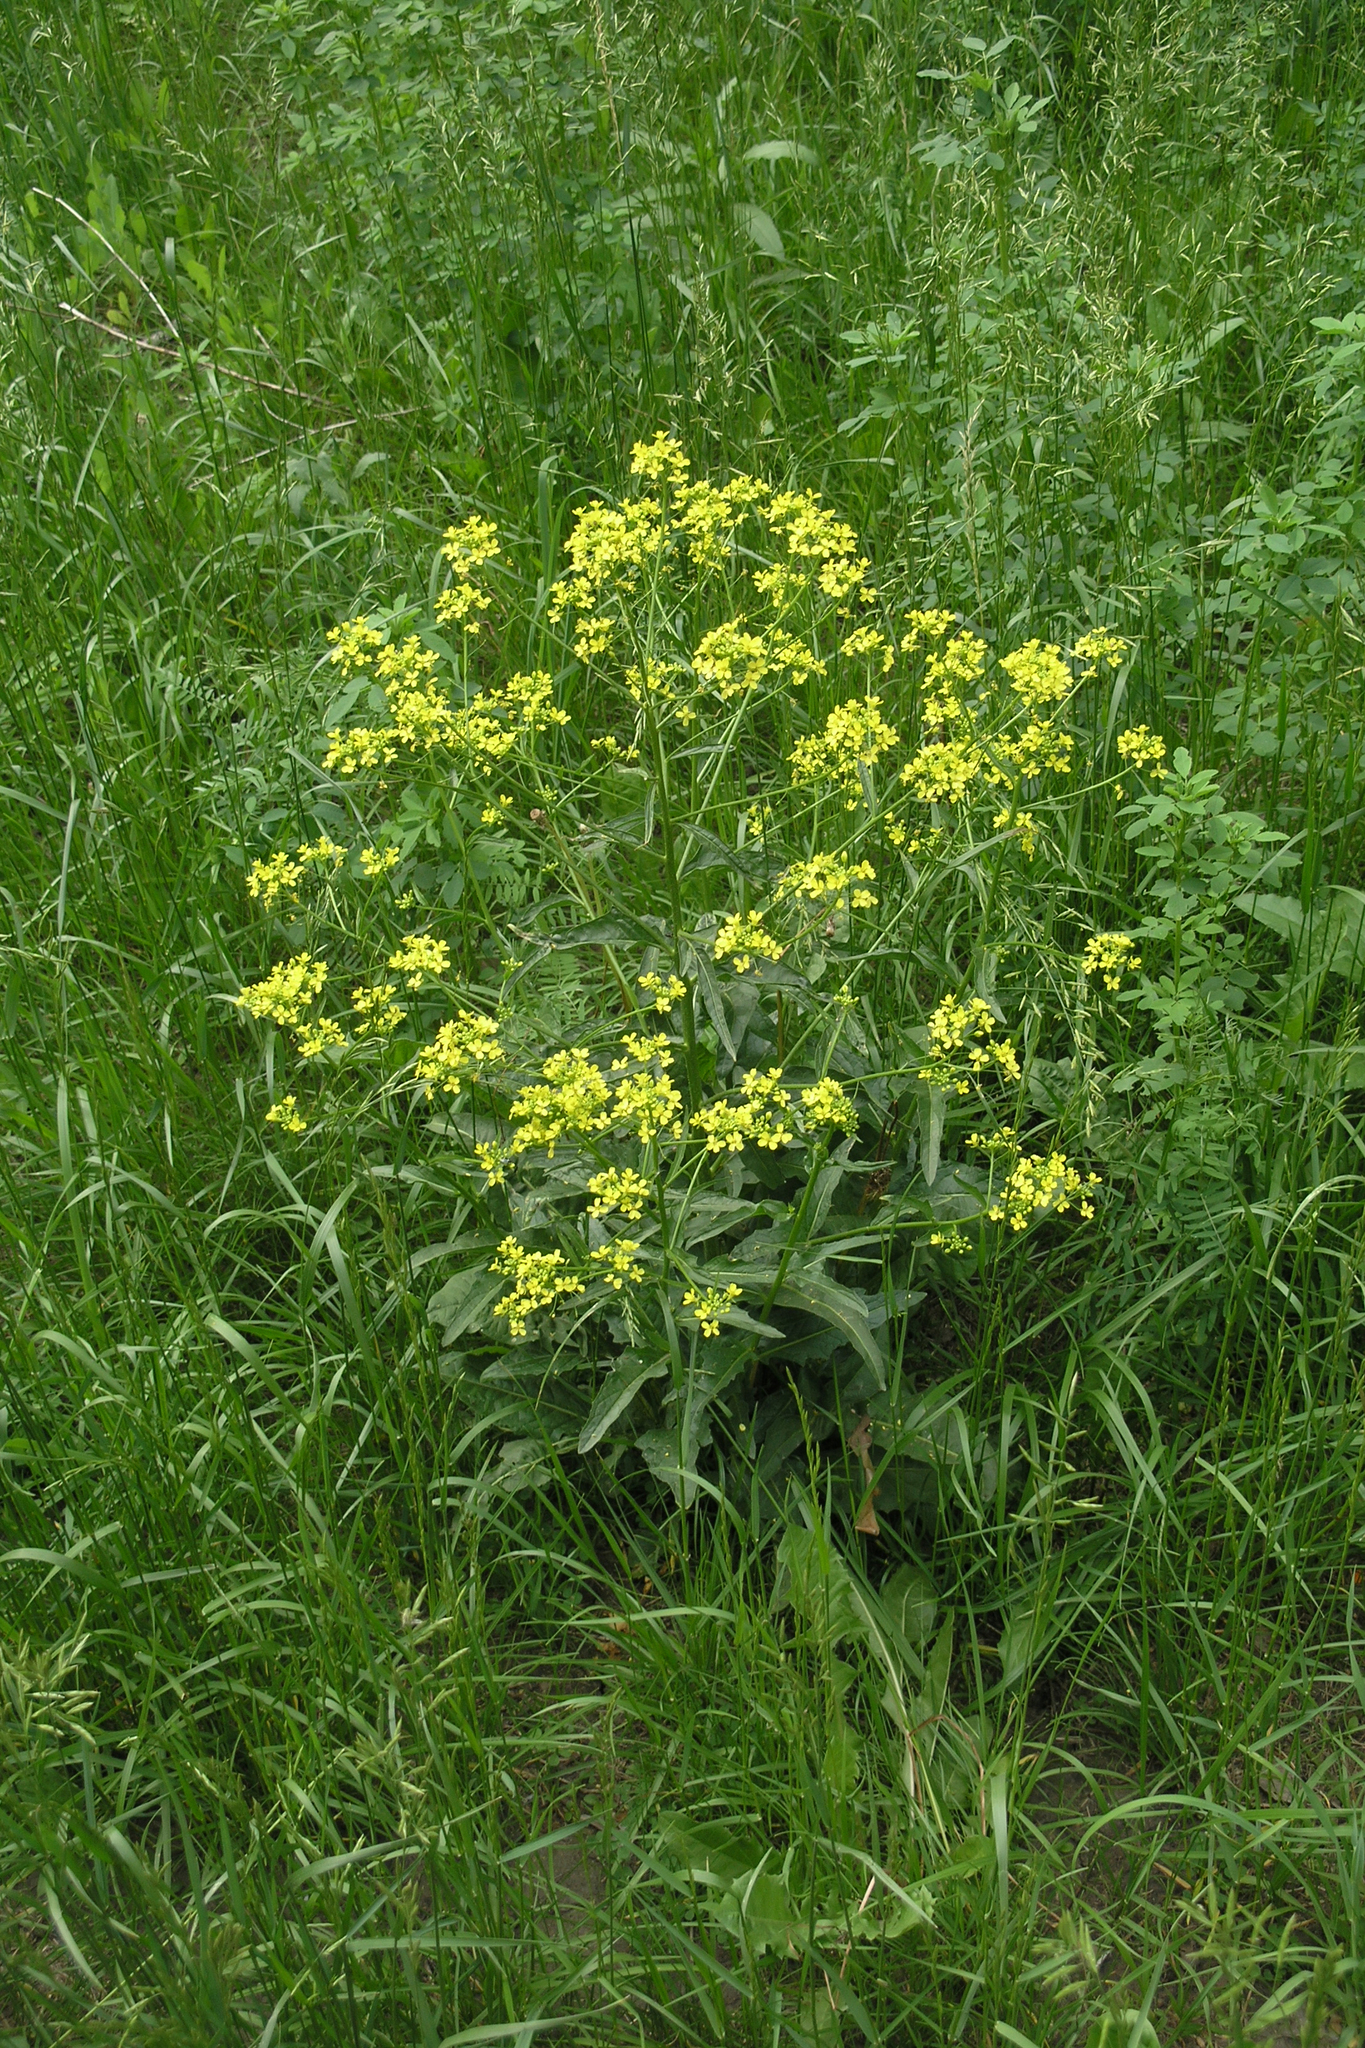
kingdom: Plantae
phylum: Tracheophyta
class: Magnoliopsida
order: Brassicales
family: Brassicaceae
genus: Bunias
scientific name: Bunias orientalis
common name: Warty-cabbage
